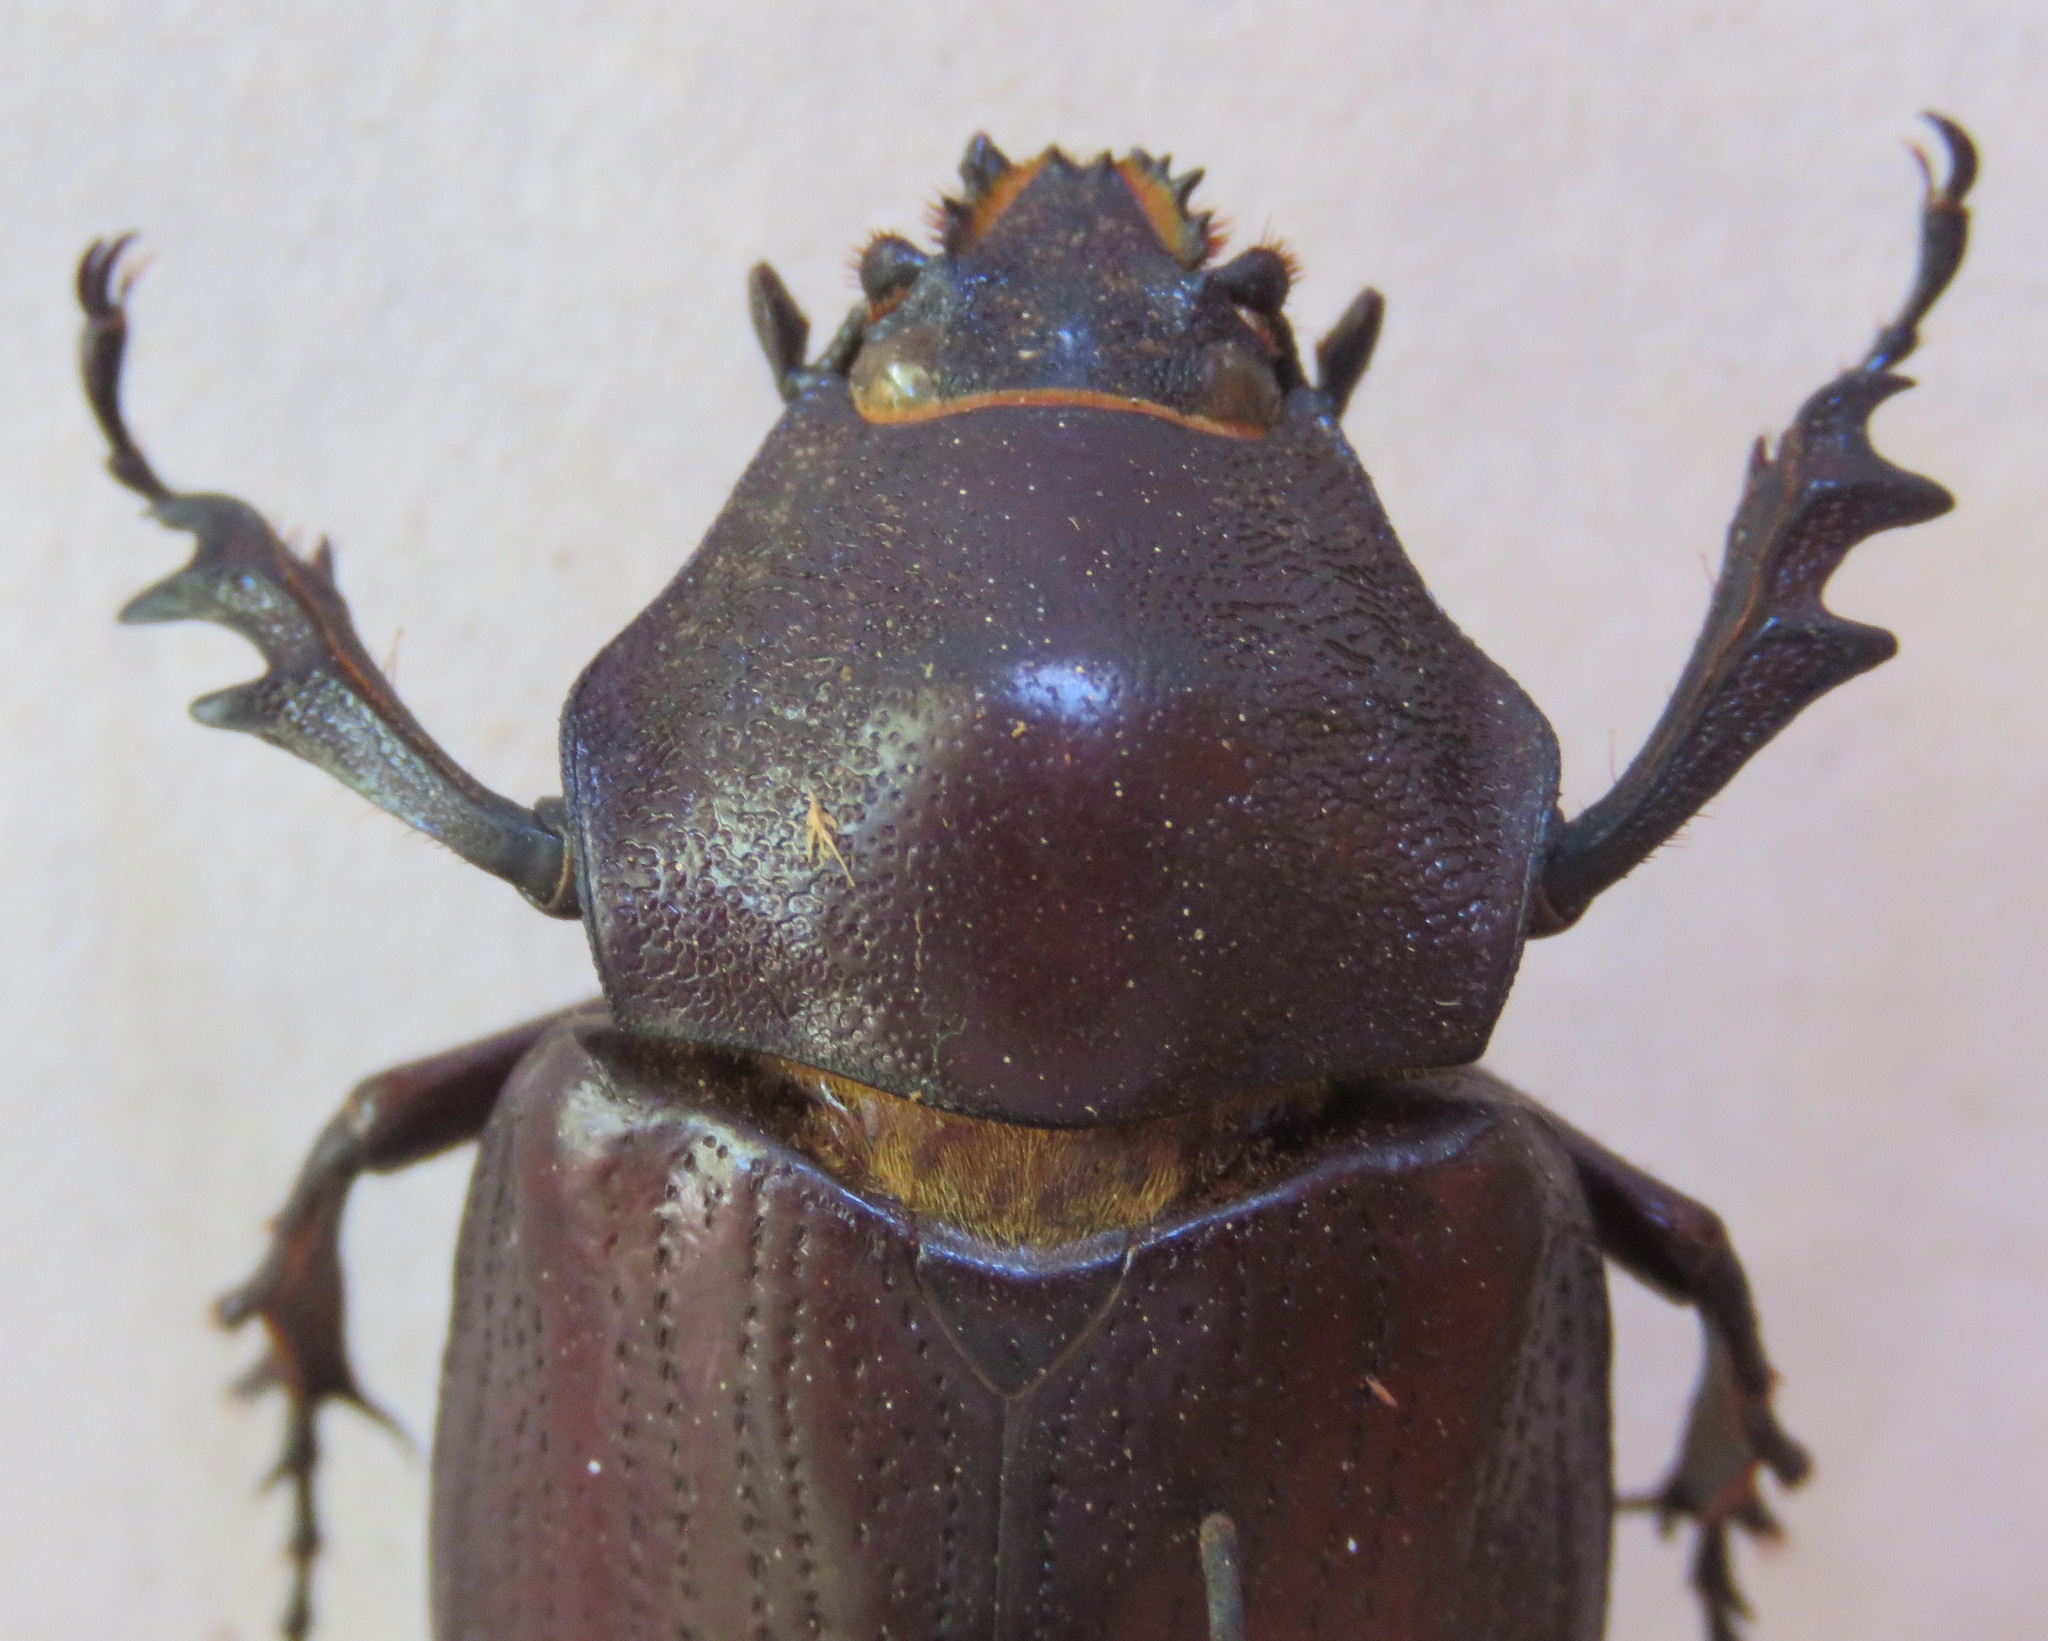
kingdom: Animalia
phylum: Arthropoda
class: Insecta
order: Coleoptera
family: Scarabaeidae
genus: Coelosis
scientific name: Coelosis biloba
